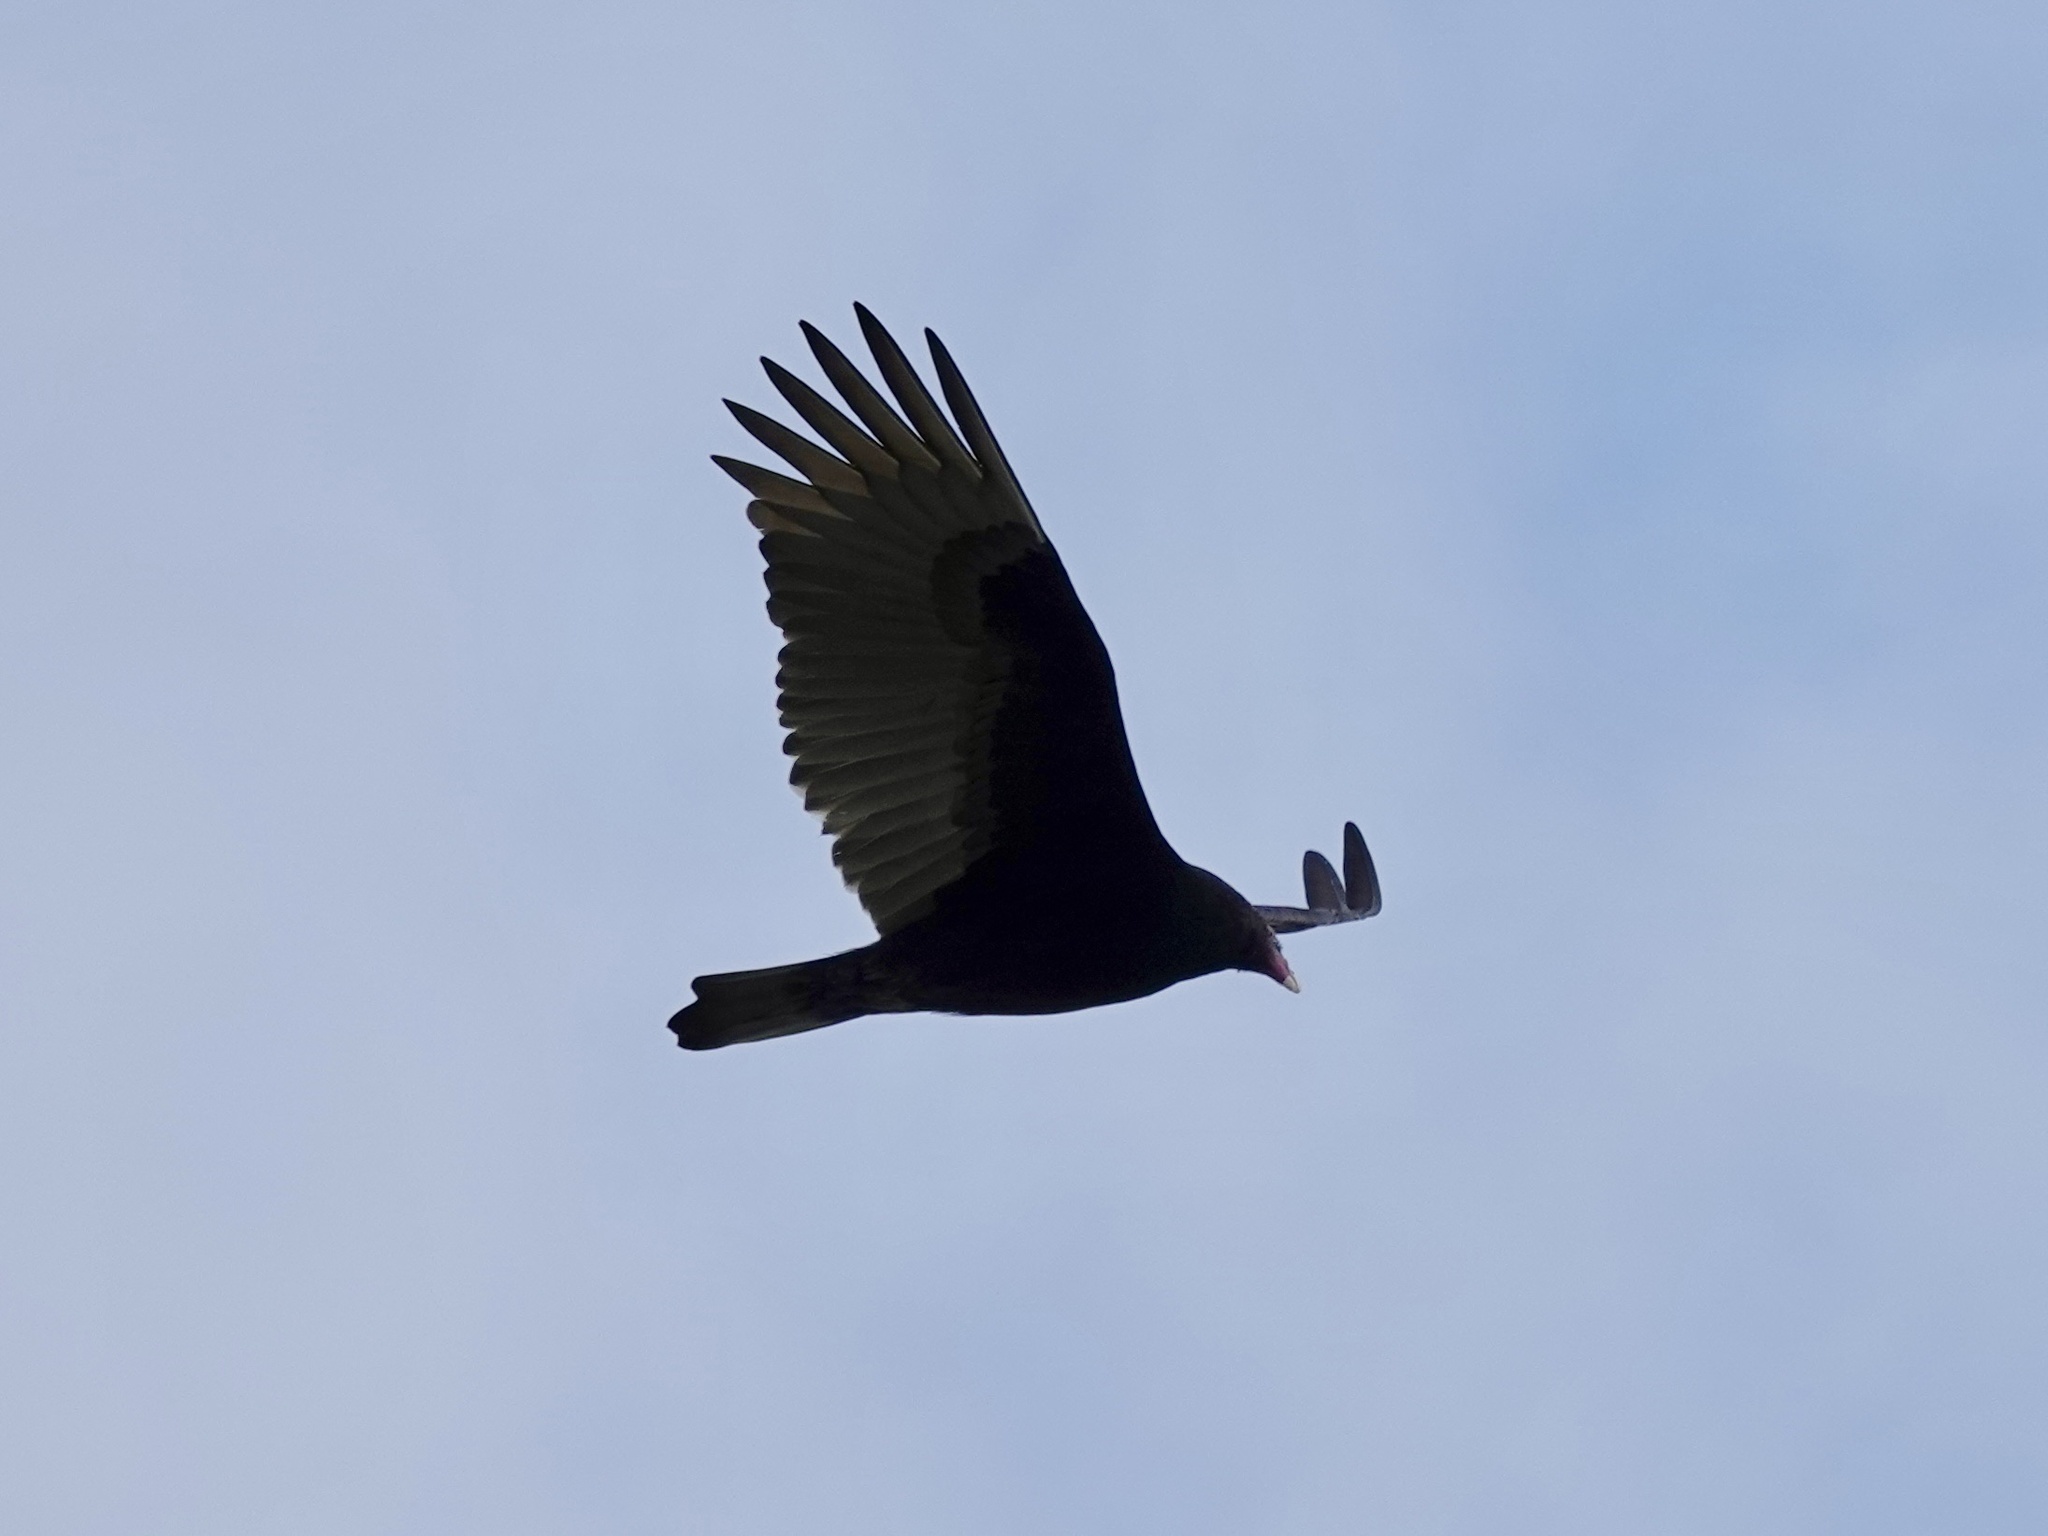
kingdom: Animalia
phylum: Chordata
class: Aves
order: Accipitriformes
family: Cathartidae
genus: Cathartes
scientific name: Cathartes aura
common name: Turkey vulture
